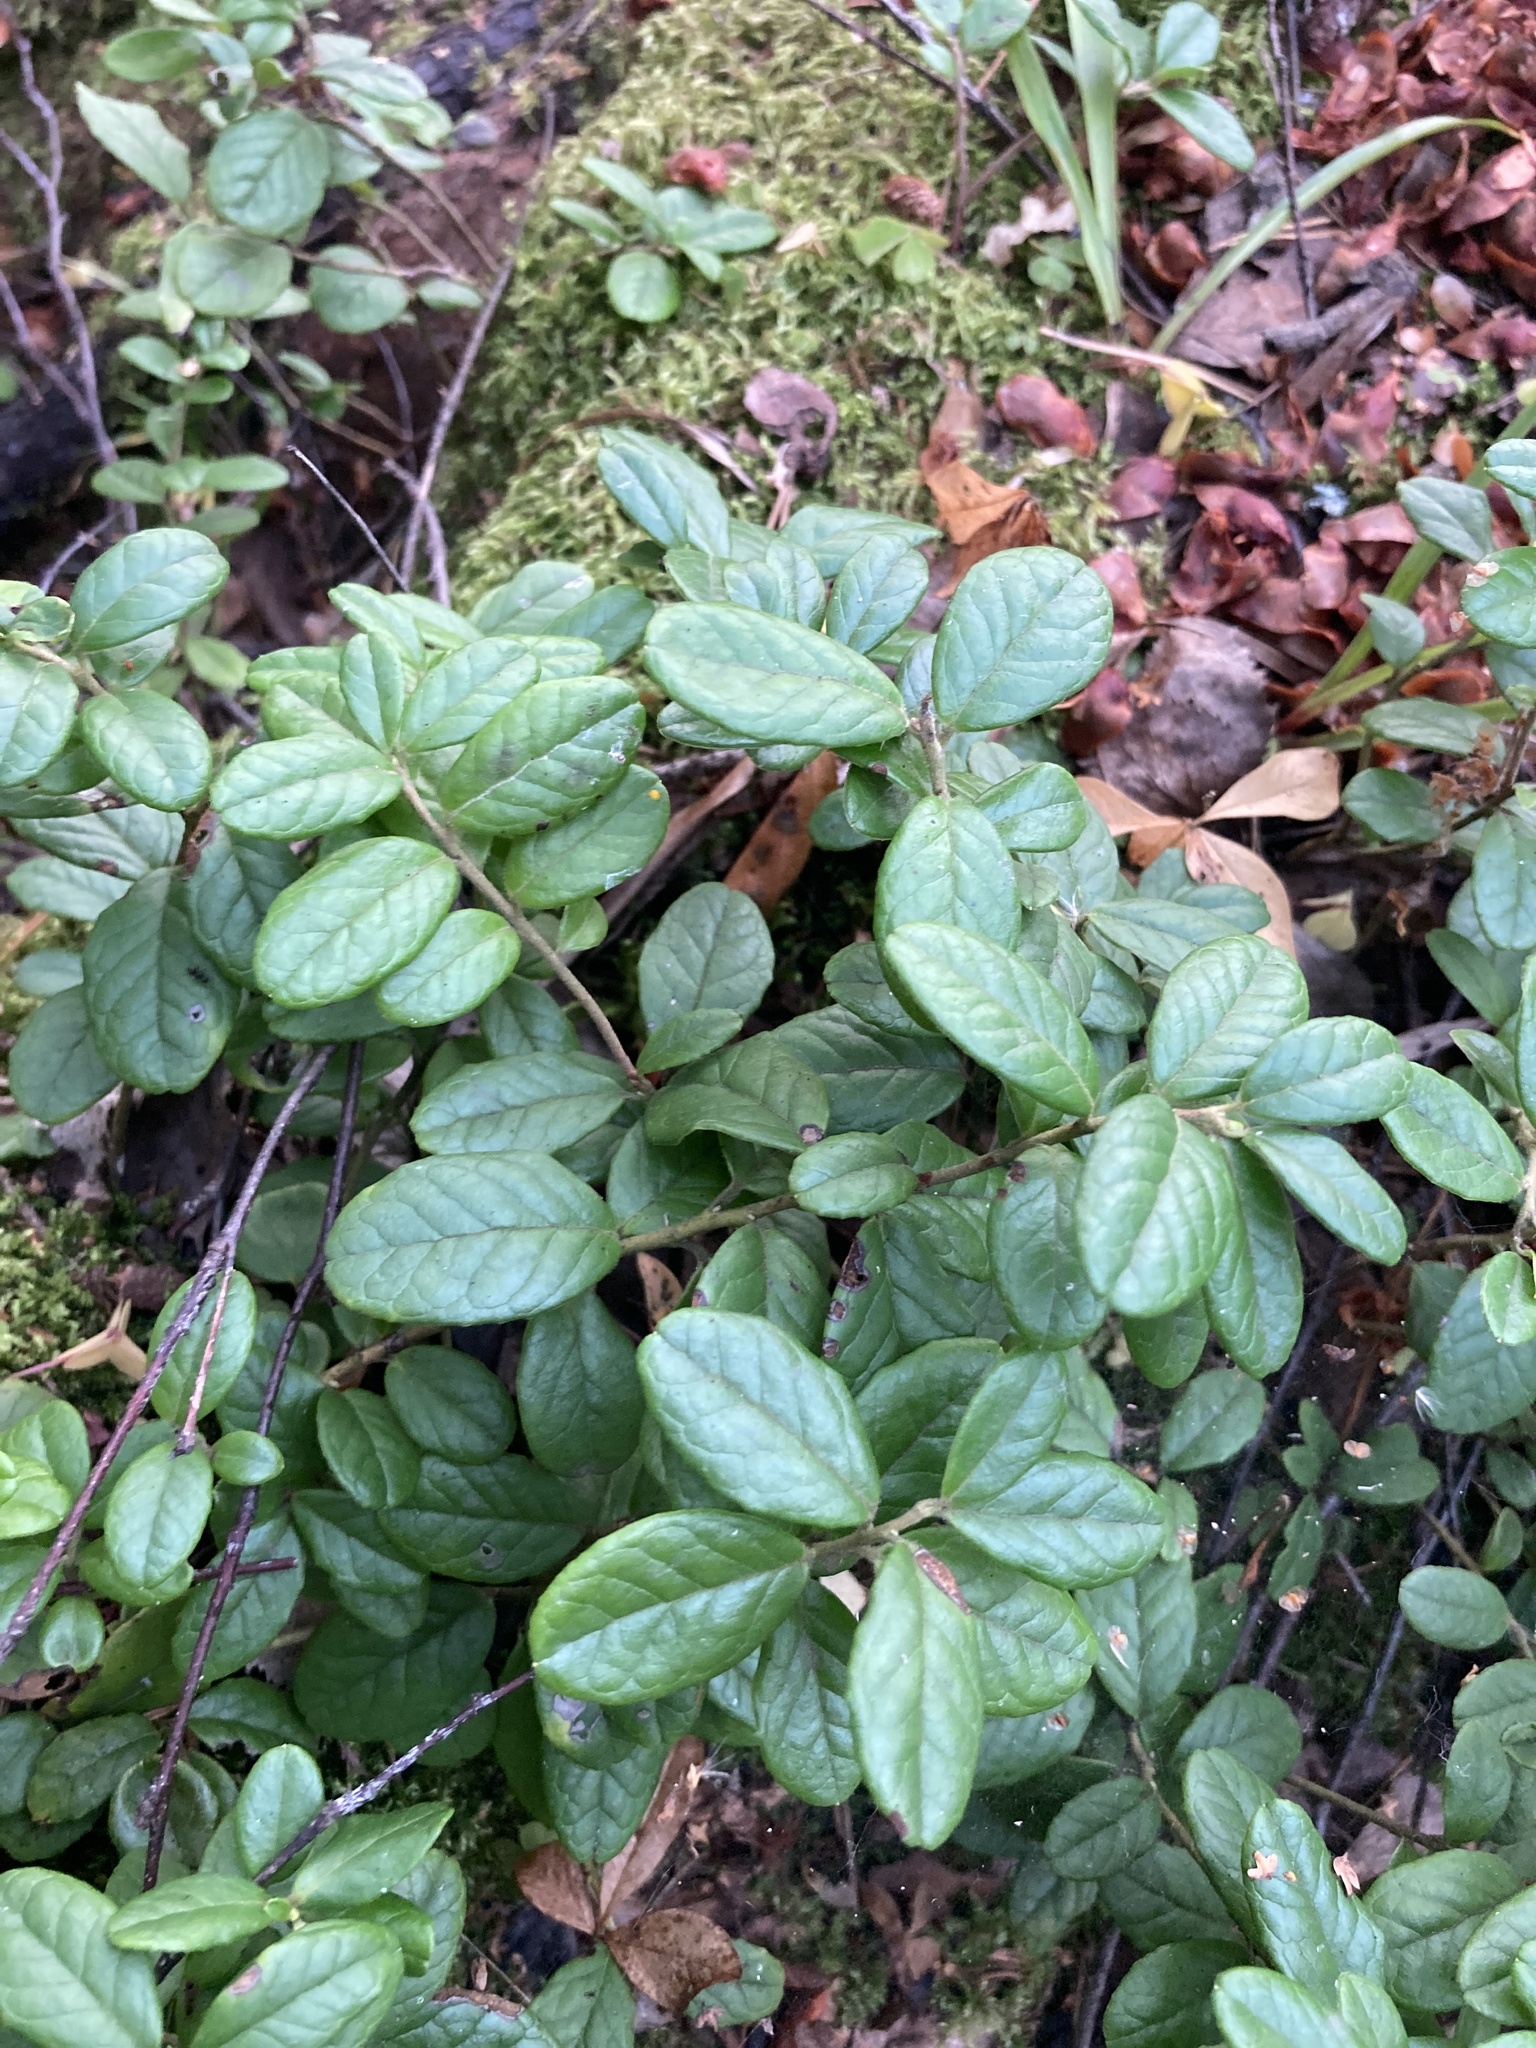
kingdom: Plantae
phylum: Tracheophyta
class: Magnoliopsida
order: Ericales
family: Ericaceae
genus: Vaccinium
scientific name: Vaccinium vitis-idaea
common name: Cowberry
